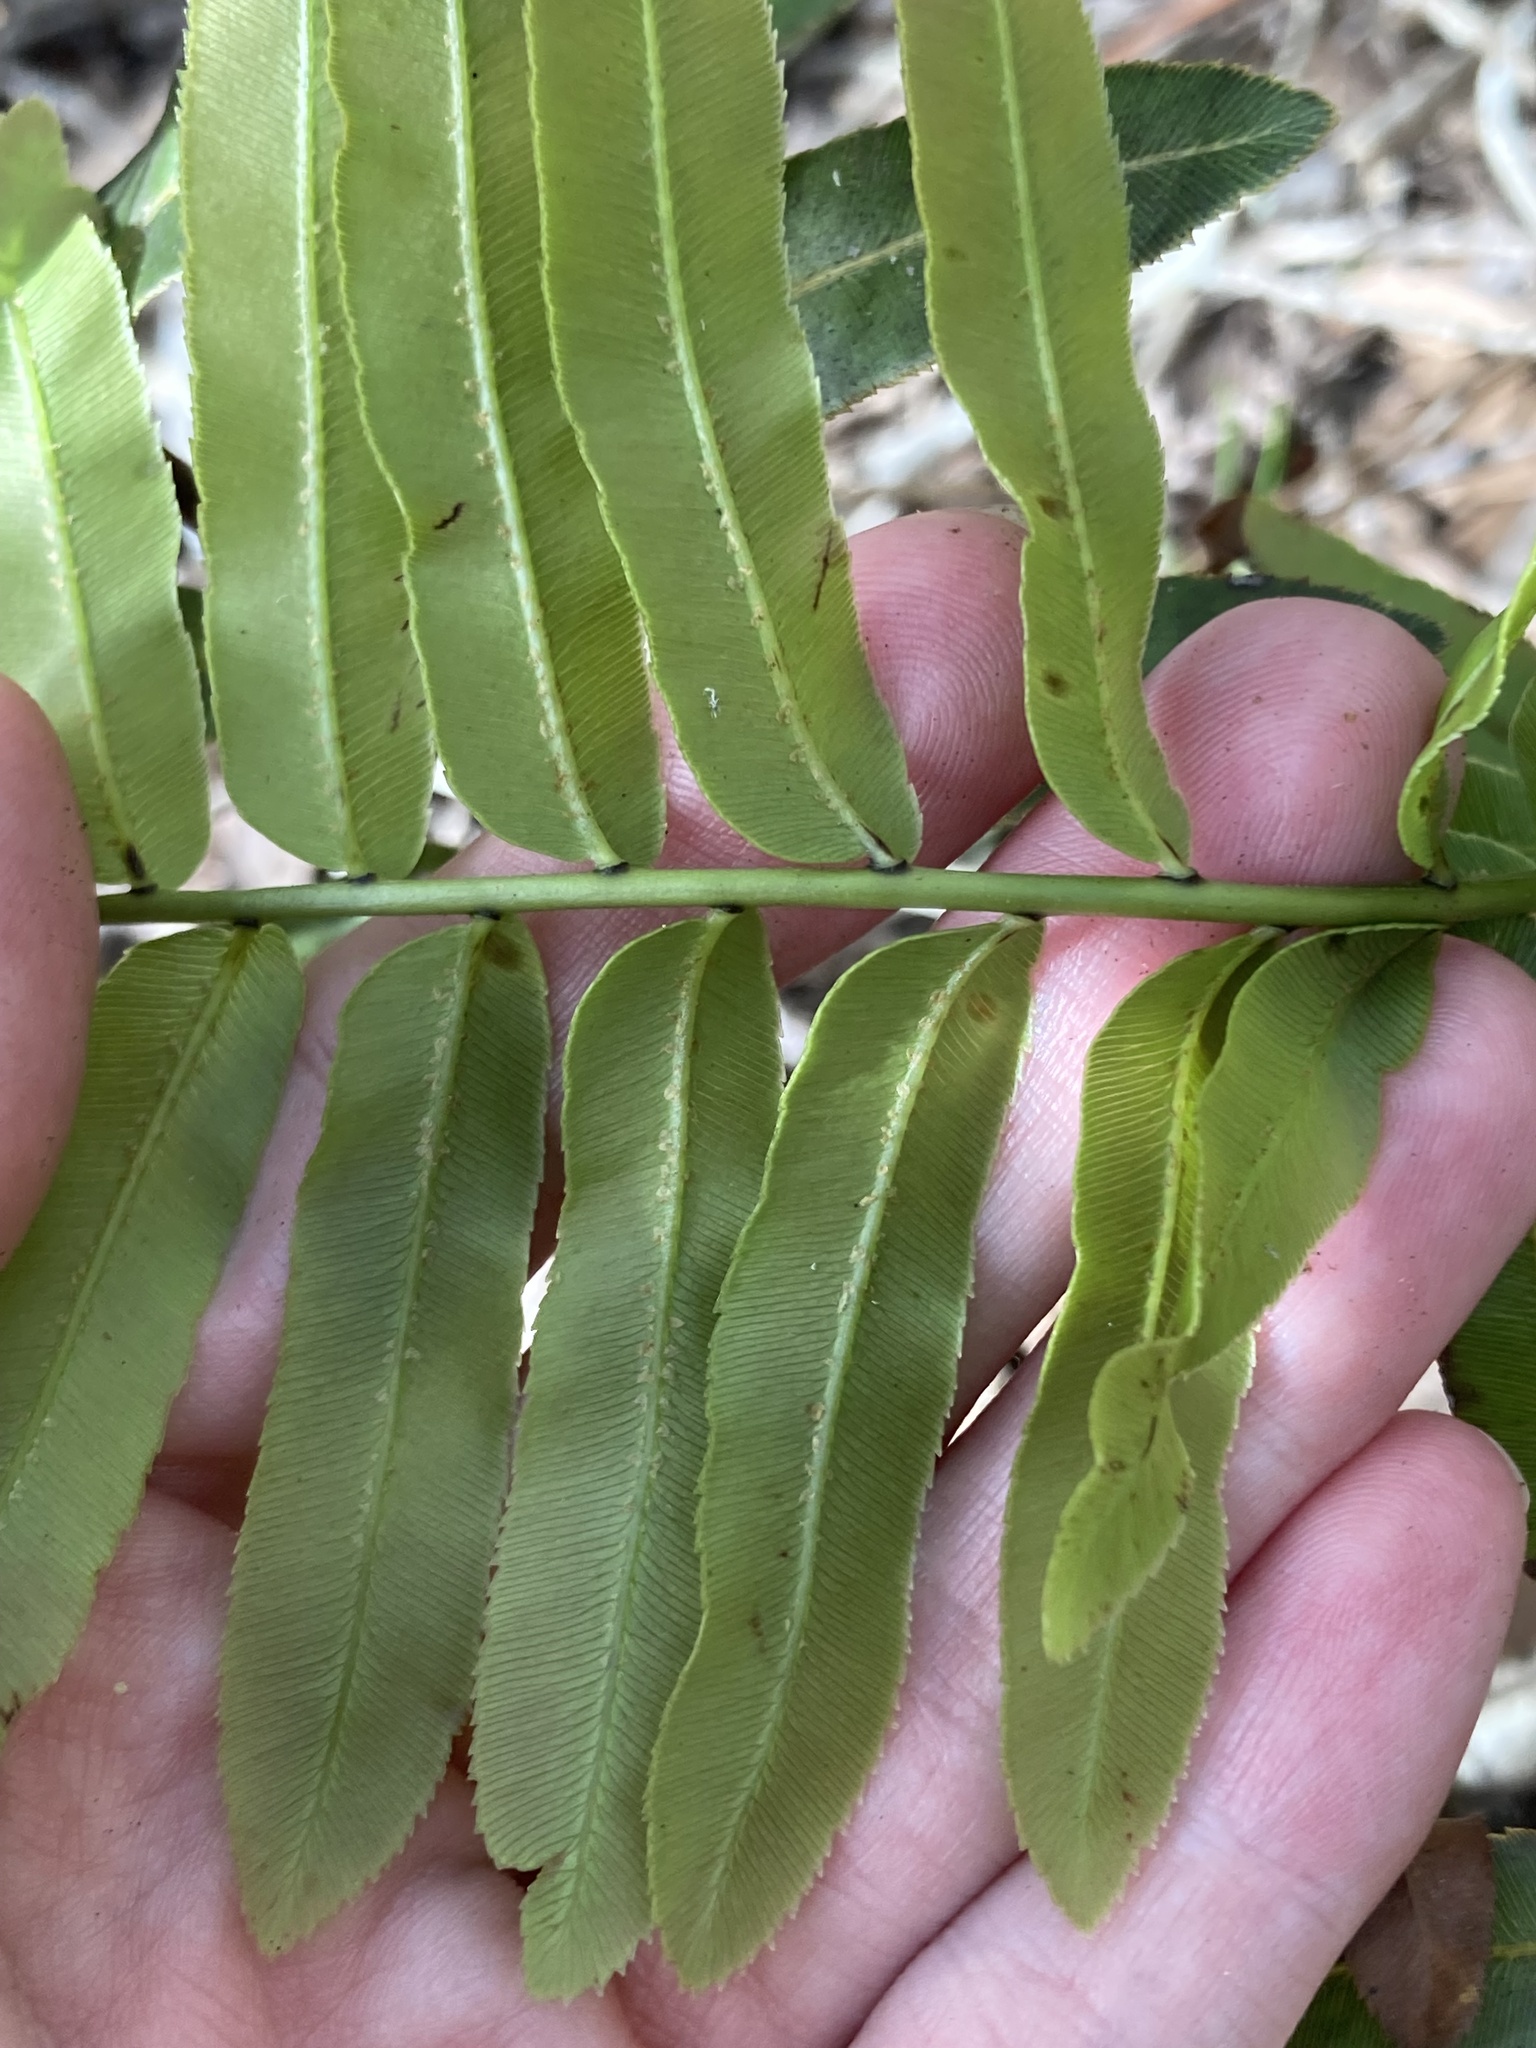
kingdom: Plantae
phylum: Tracheophyta
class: Polypodiopsida
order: Polypodiales
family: Blechnaceae
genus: Telmatoblechnum
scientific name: Telmatoblechnum serrulatum
